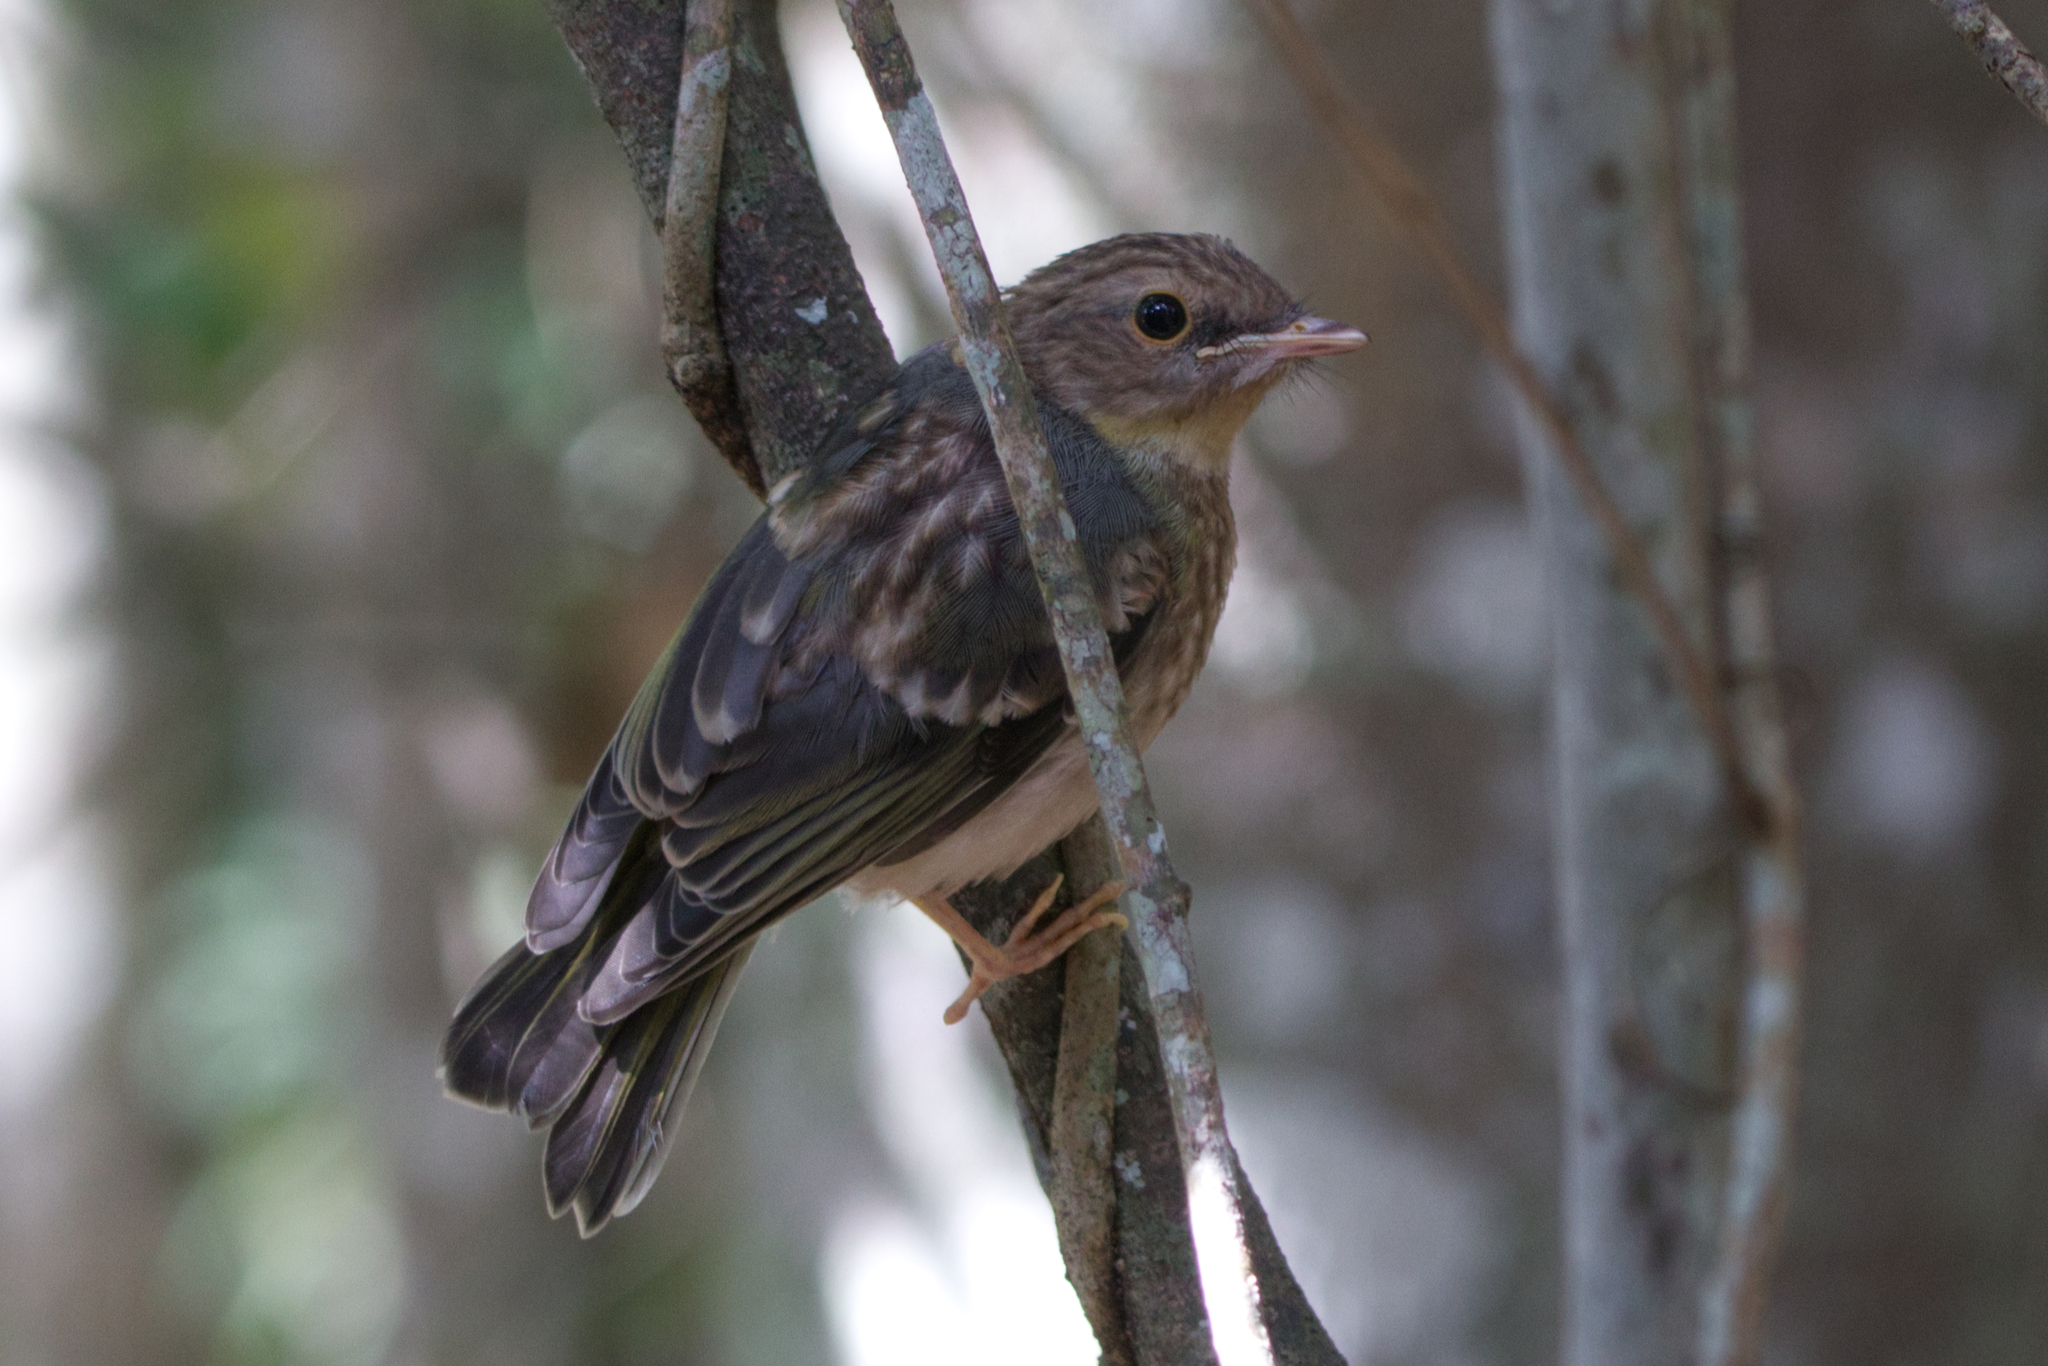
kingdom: Animalia
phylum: Chordata
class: Aves
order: Passeriformes
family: Petroicidae
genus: Eopsaltria
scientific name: Eopsaltria australis
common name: Eastern yellow robin
